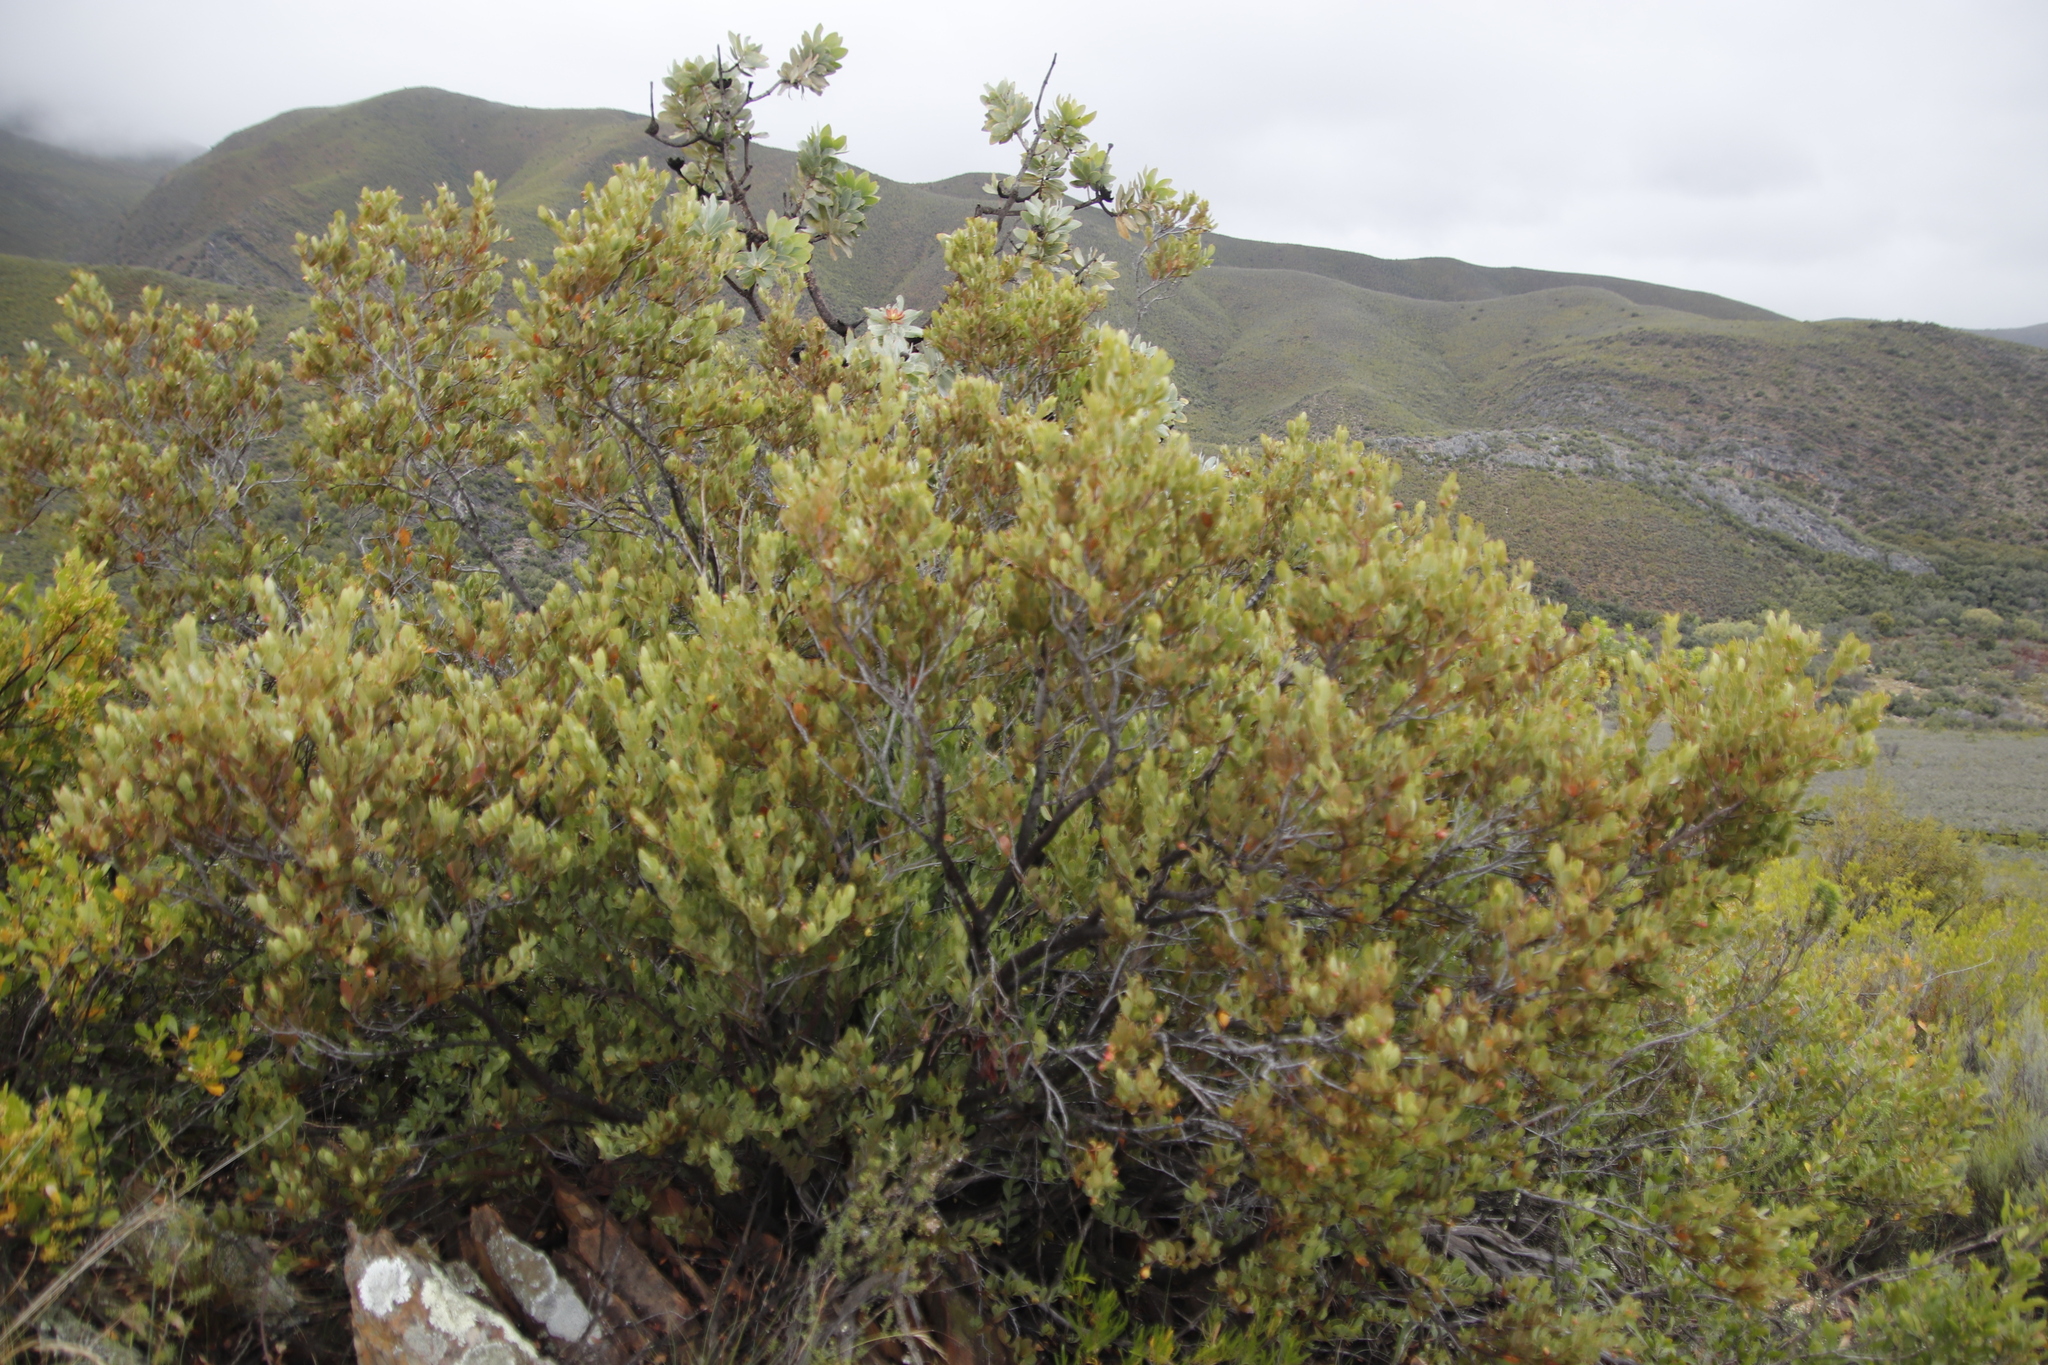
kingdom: Plantae
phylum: Tracheophyta
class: Magnoliopsida
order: Santalales
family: Santalaceae
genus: Osyris
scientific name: Osyris compressa
